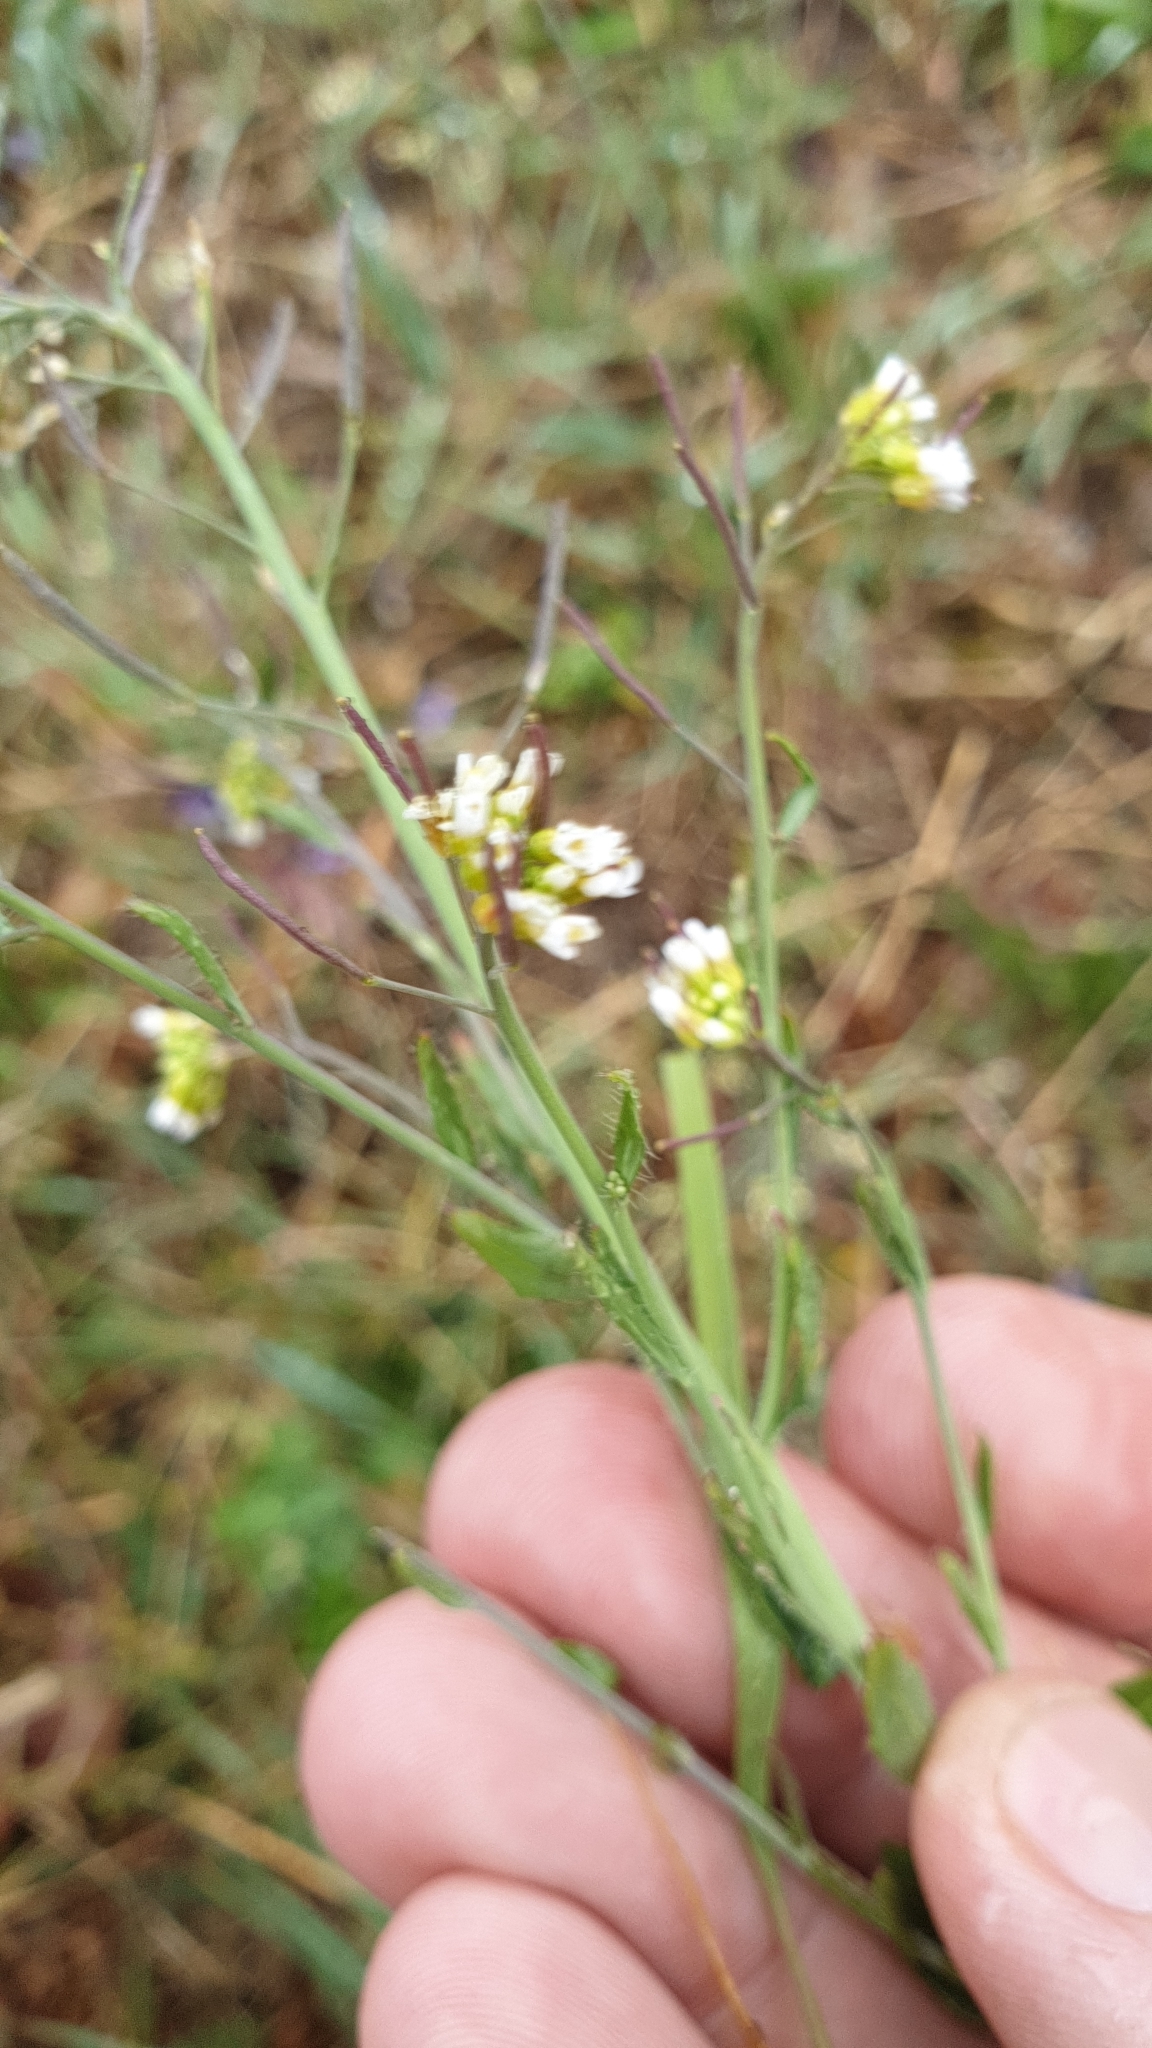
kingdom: Plantae
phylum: Tracheophyta
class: Magnoliopsida
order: Brassicales
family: Brassicaceae
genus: Arabidopsis
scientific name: Arabidopsis thaliana
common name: Thale cress
